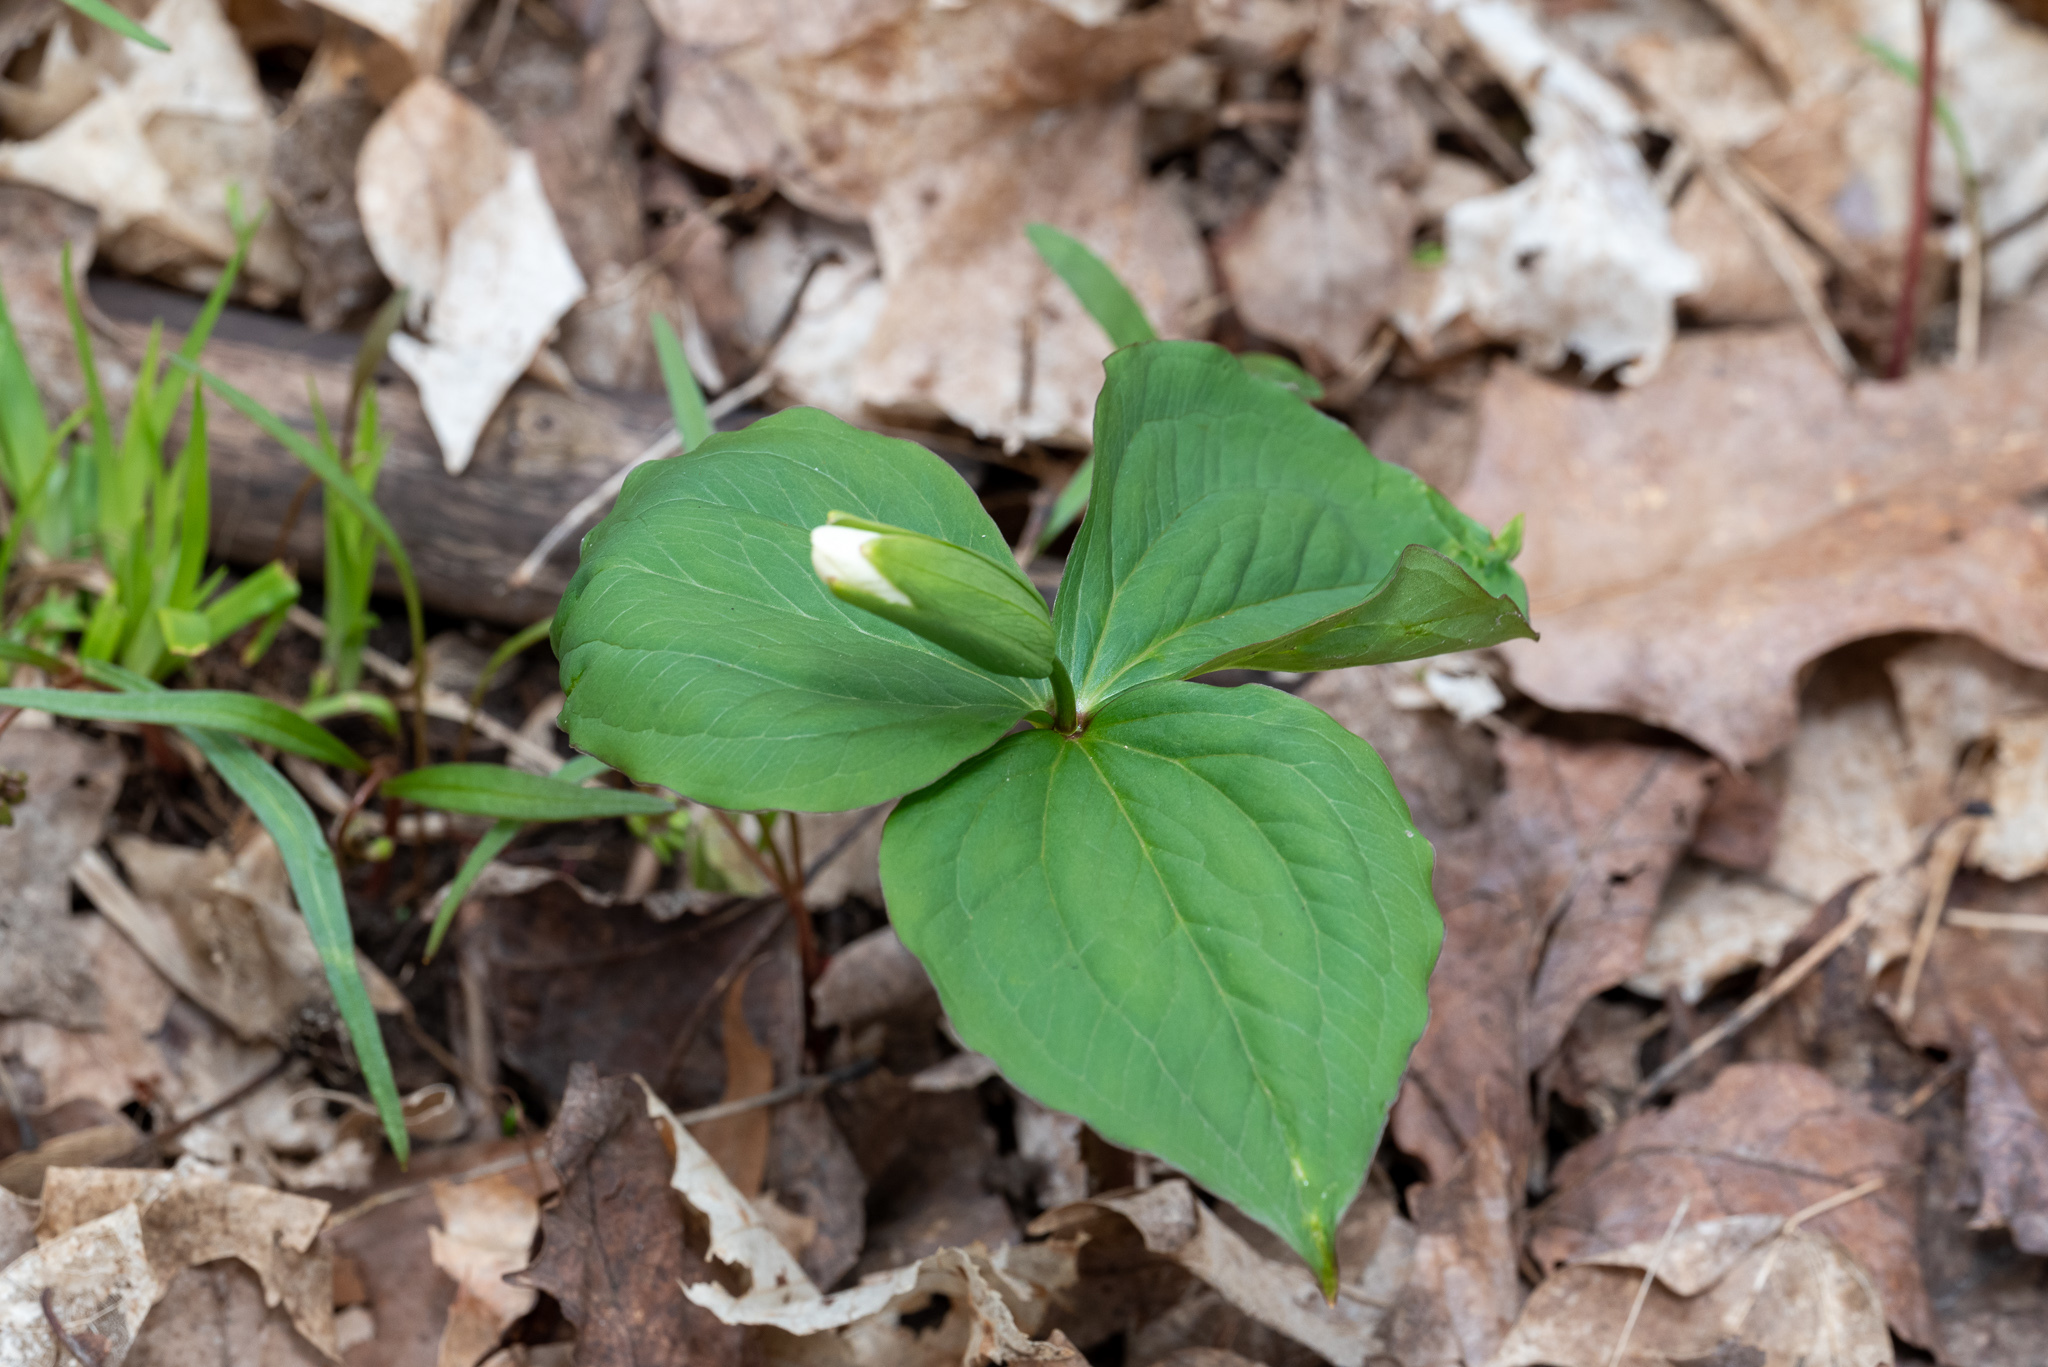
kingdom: Plantae
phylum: Tracheophyta
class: Liliopsida
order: Liliales
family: Melanthiaceae
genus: Trillium
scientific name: Trillium grandiflorum
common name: Great white trillium
